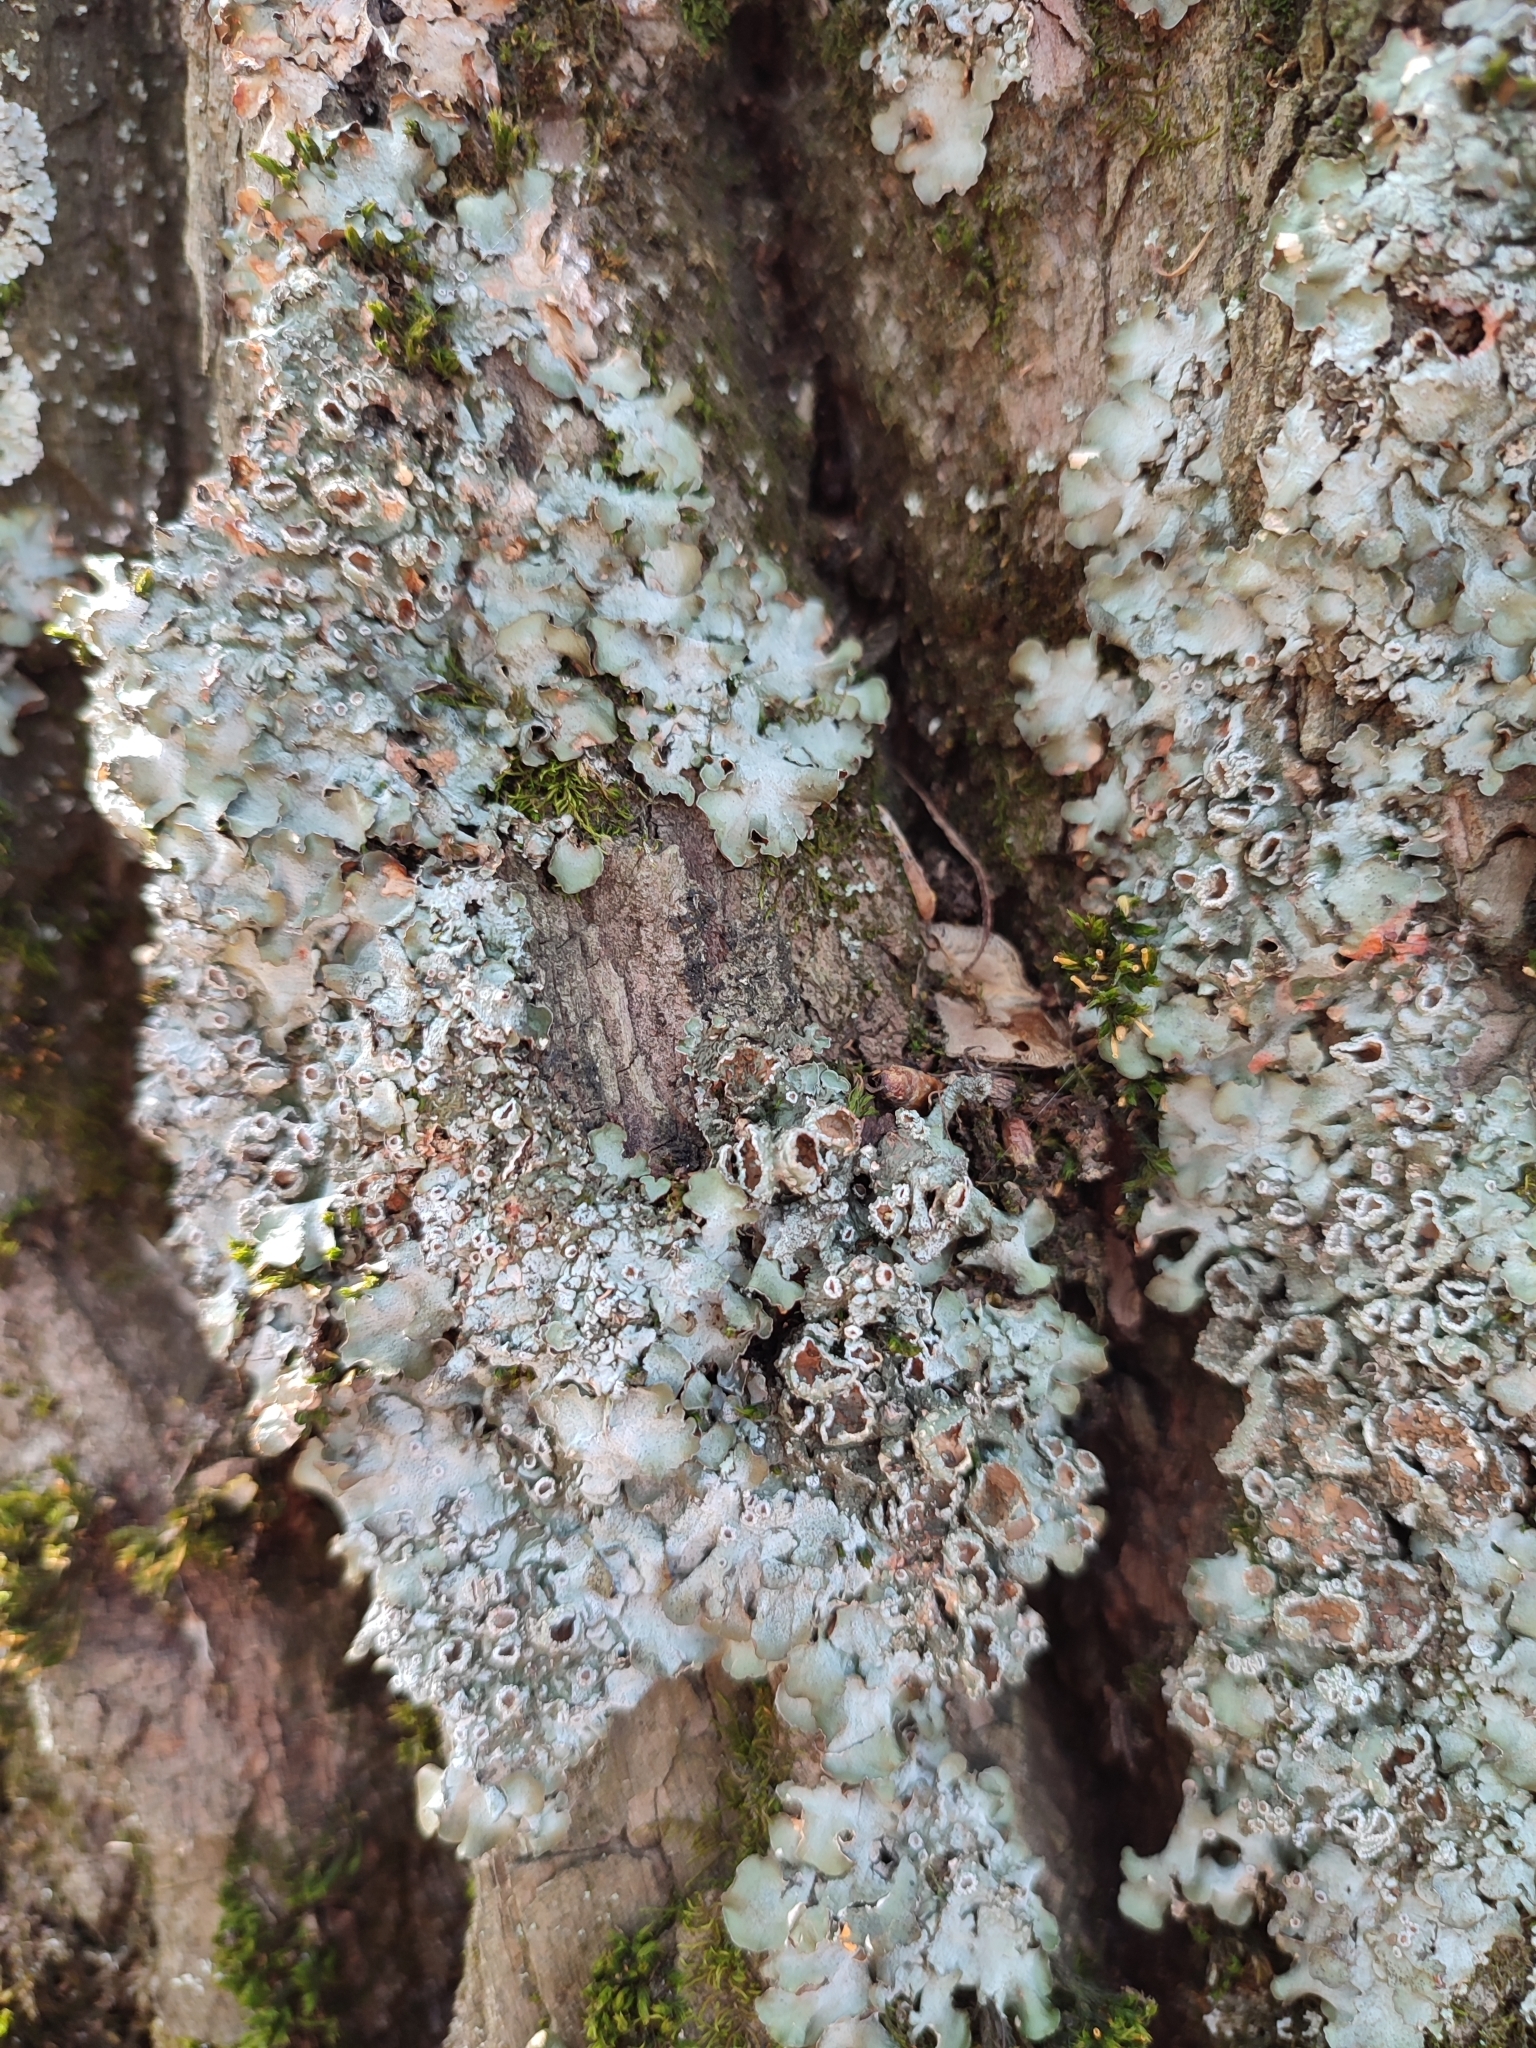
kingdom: Fungi
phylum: Ascomycota
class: Lecanoromycetes
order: Lecanorales
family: Parmeliaceae
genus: Pleurosticta
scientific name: Pleurosticta acetabulum
